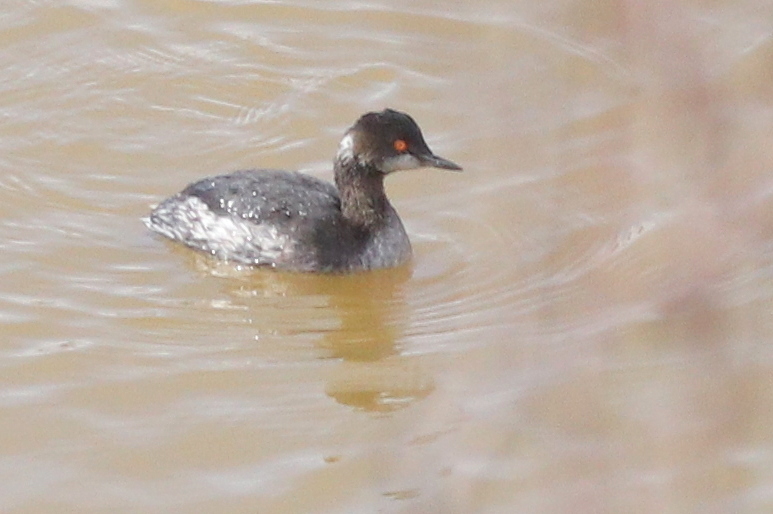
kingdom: Animalia
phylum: Chordata
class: Aves
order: Podicipediformes
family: Podicipedidae
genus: Podiceps
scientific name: Podiceps nigricollis
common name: Black-necked grebe
